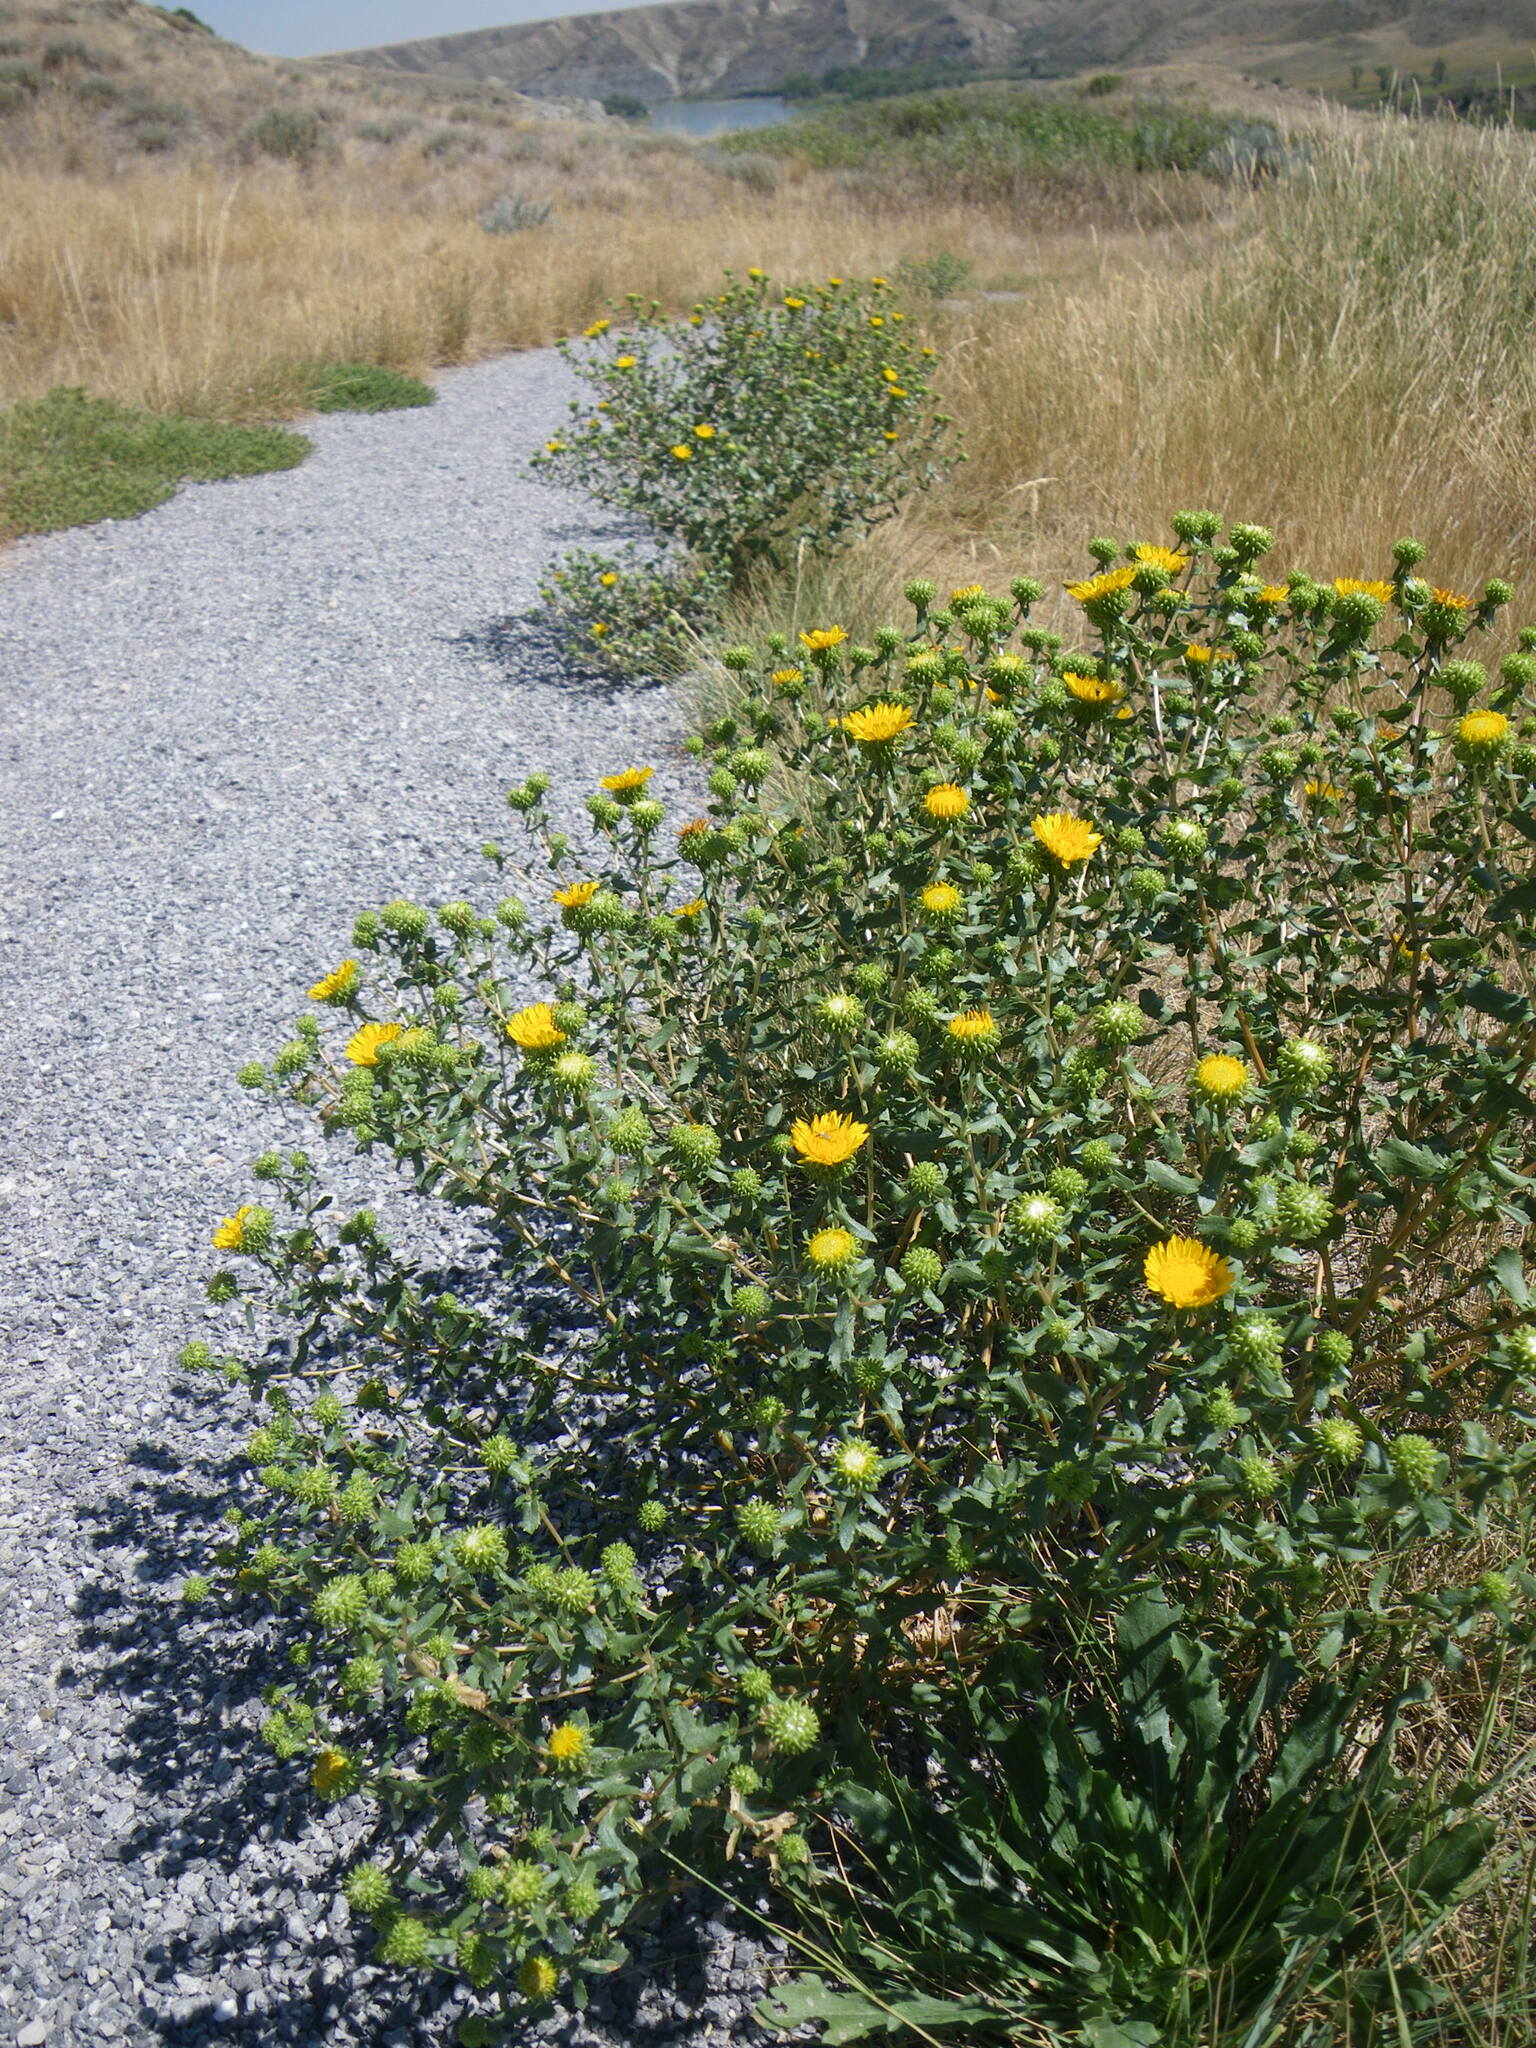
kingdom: Plantae
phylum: Tracheophyta
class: Magnoliopsida
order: Asterales
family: Asteraceae
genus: Grindelia
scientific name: Grindelia squarrosa
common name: Curly-cup gumweed
